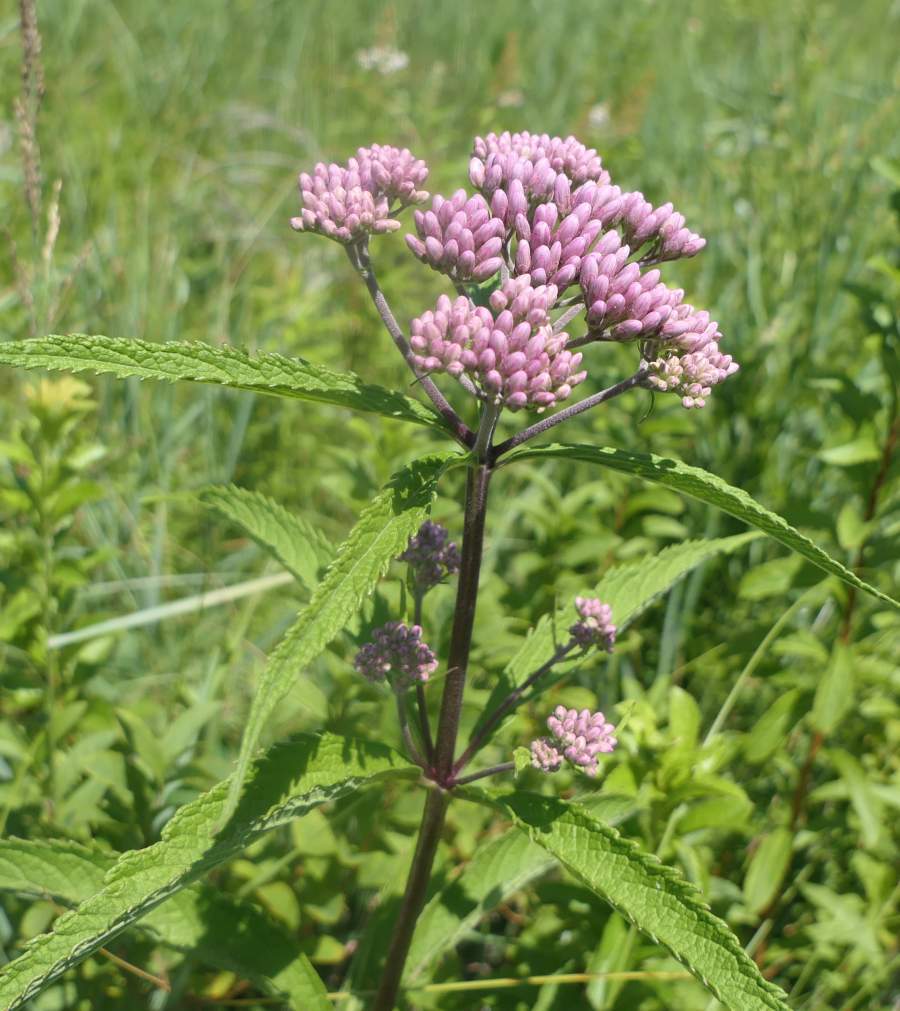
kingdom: Plantae
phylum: Tracheophyta
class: Magnoliopsida
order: Asterales
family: Asteraceae
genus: Eutrochium
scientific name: Eutrochium maculatum
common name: Spotted joe pye weed
